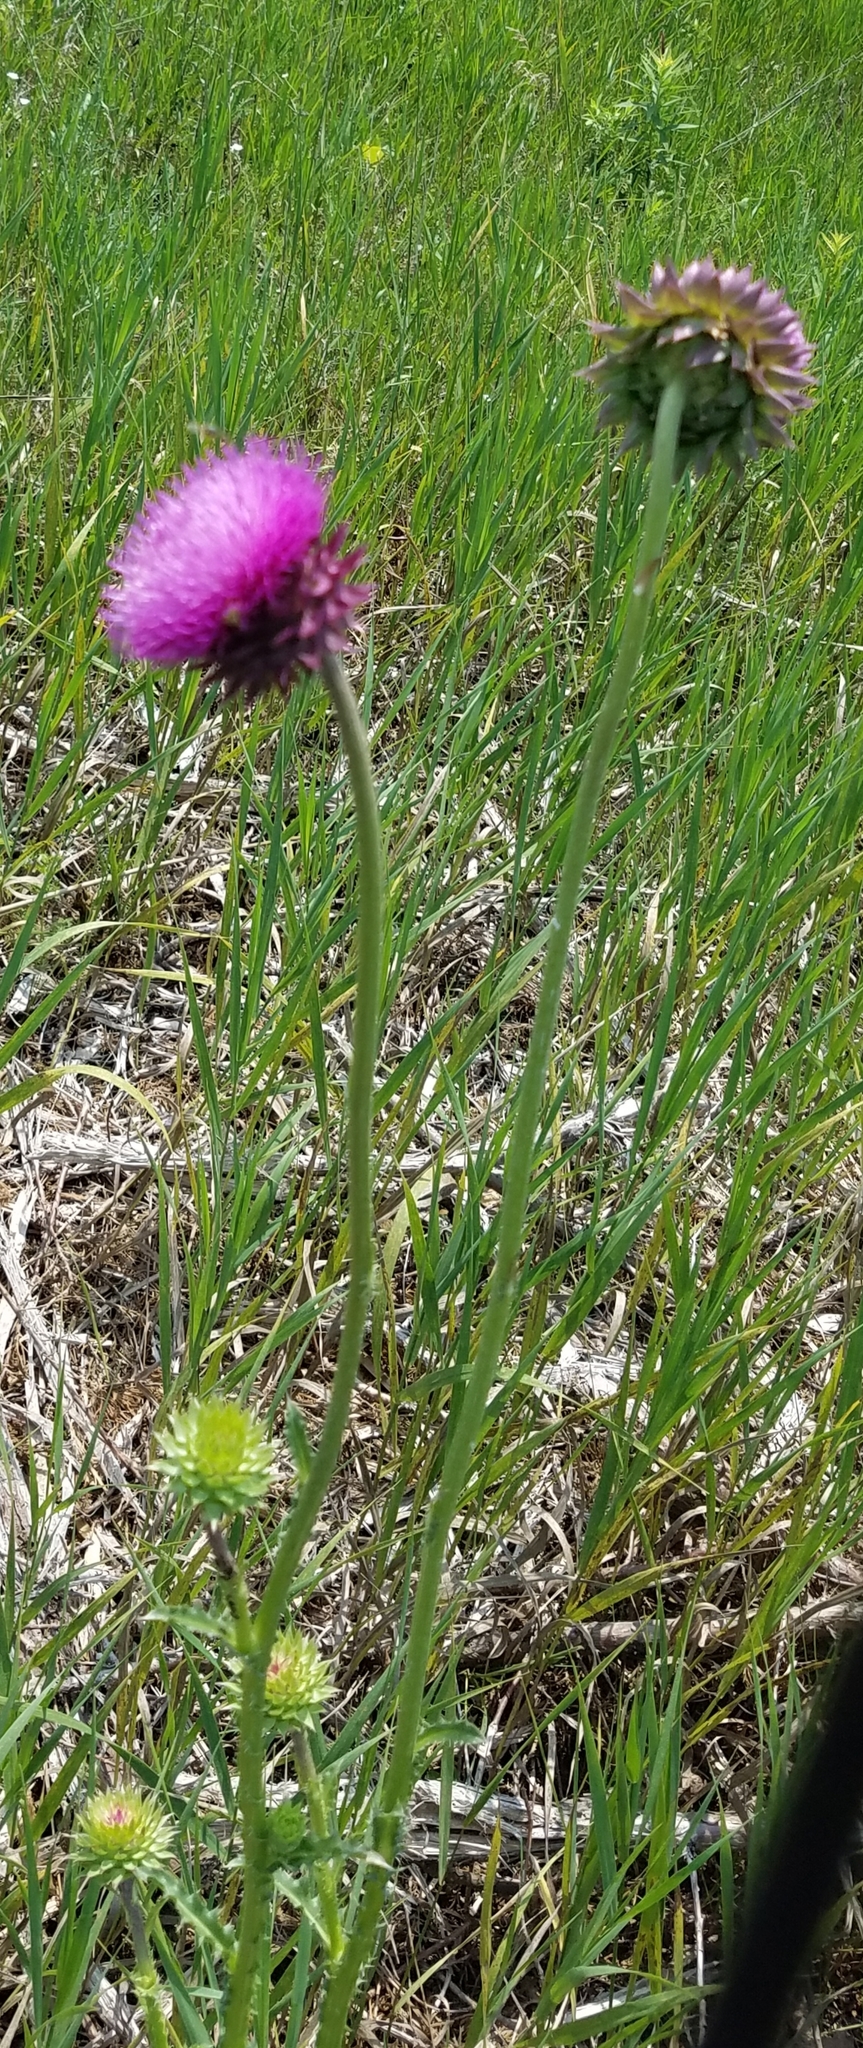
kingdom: Plantae
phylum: Tracheophyta
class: Magnoliopsida
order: Asterales
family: Asteraceae
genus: Carduus
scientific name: Carduus nutans
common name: Musk thistle
